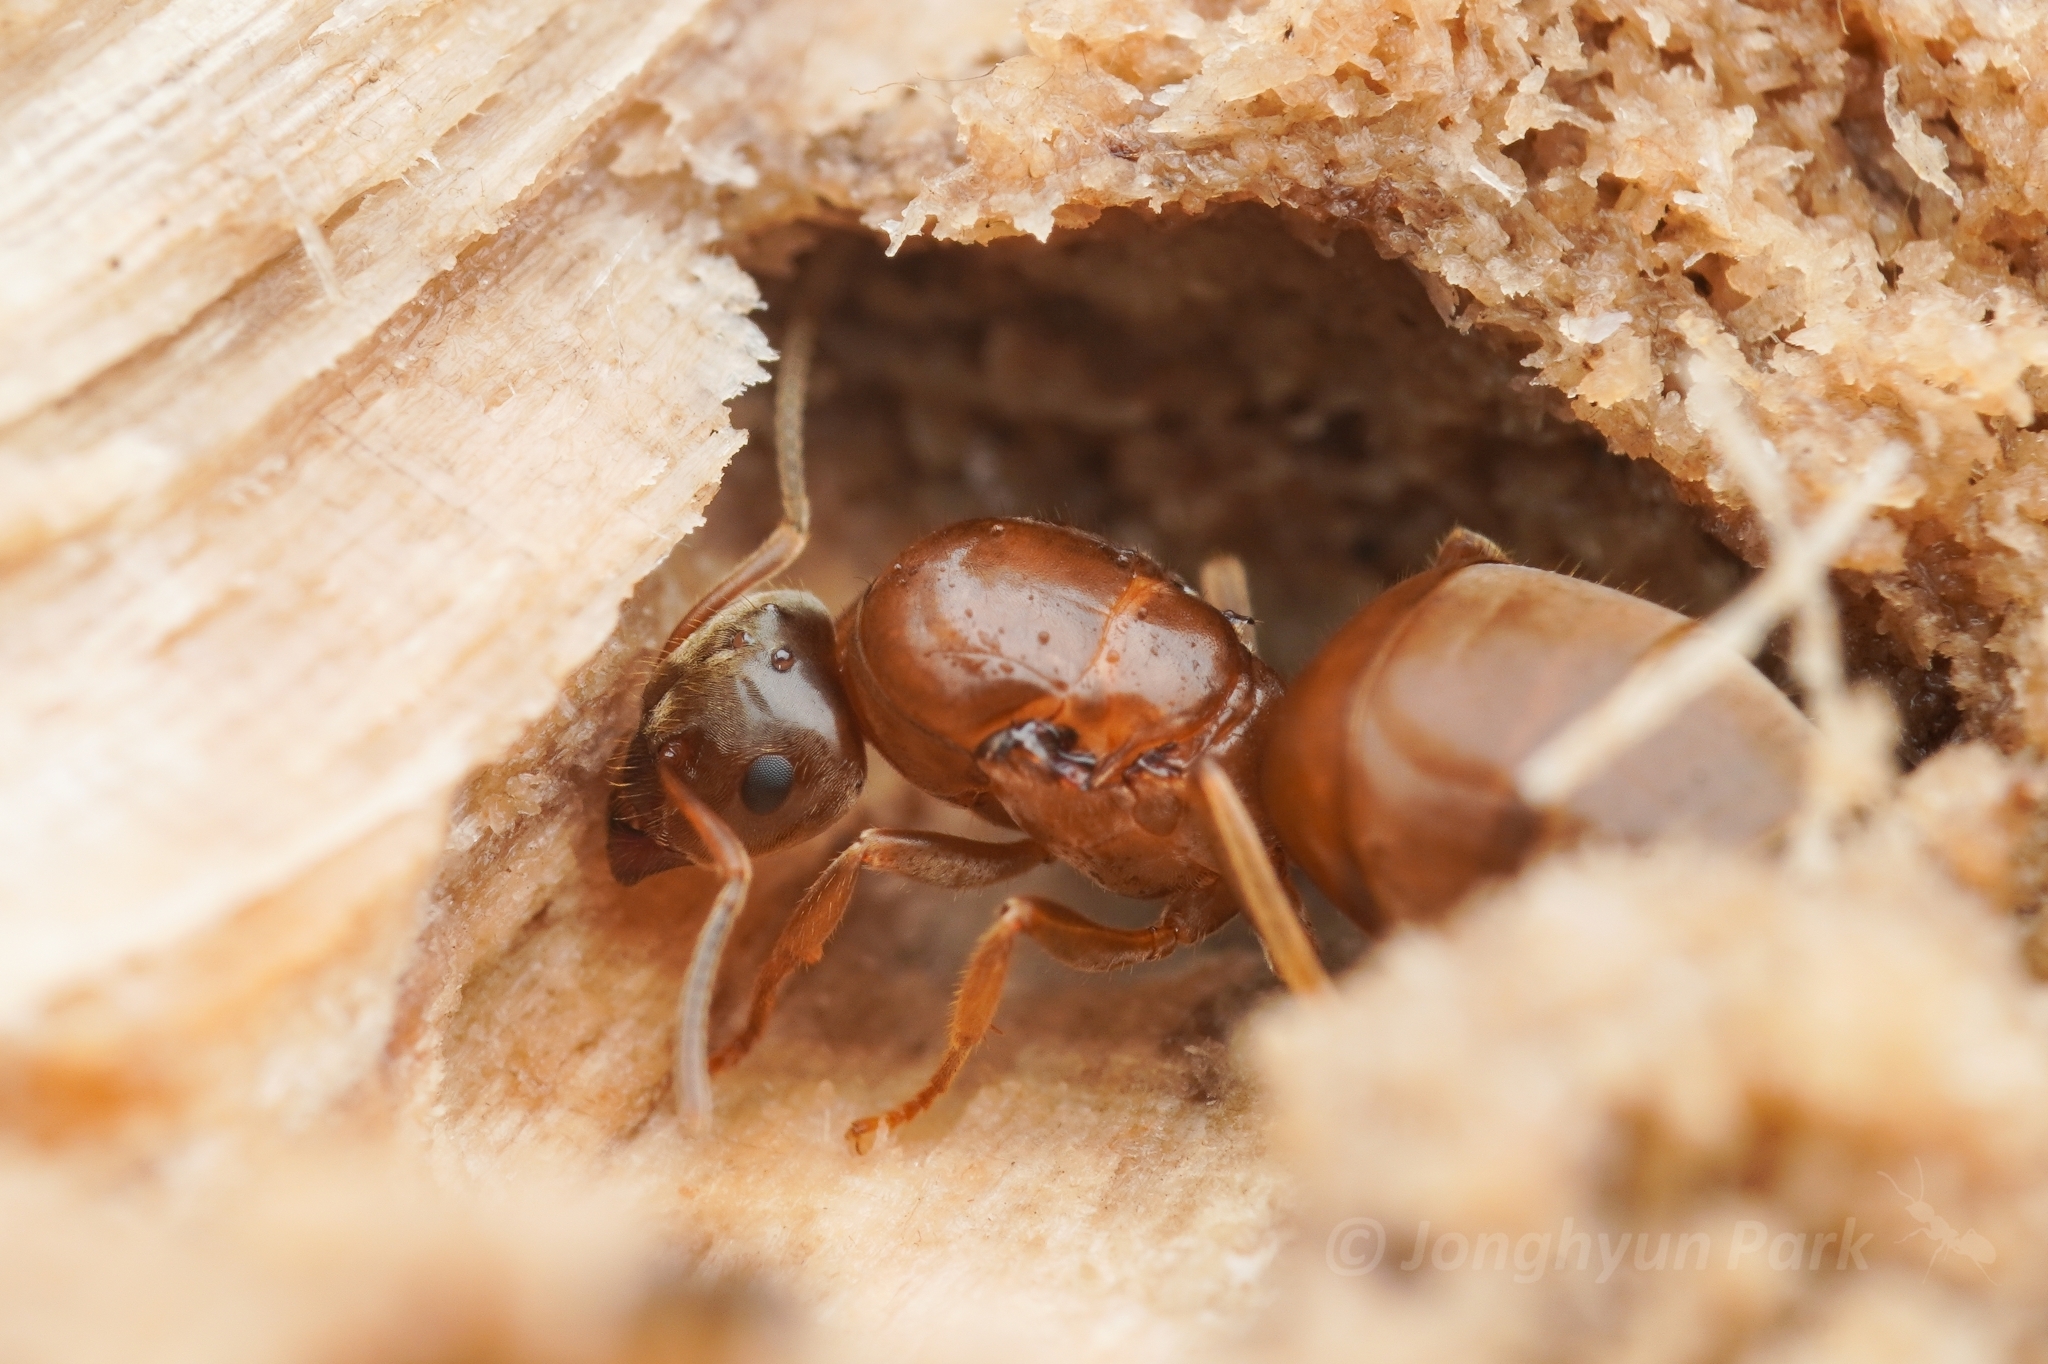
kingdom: Animalia
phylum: Arthropoda
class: Insecta
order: Hymenoptera
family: Formicidae
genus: Lasius
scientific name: Lasius hayashi
